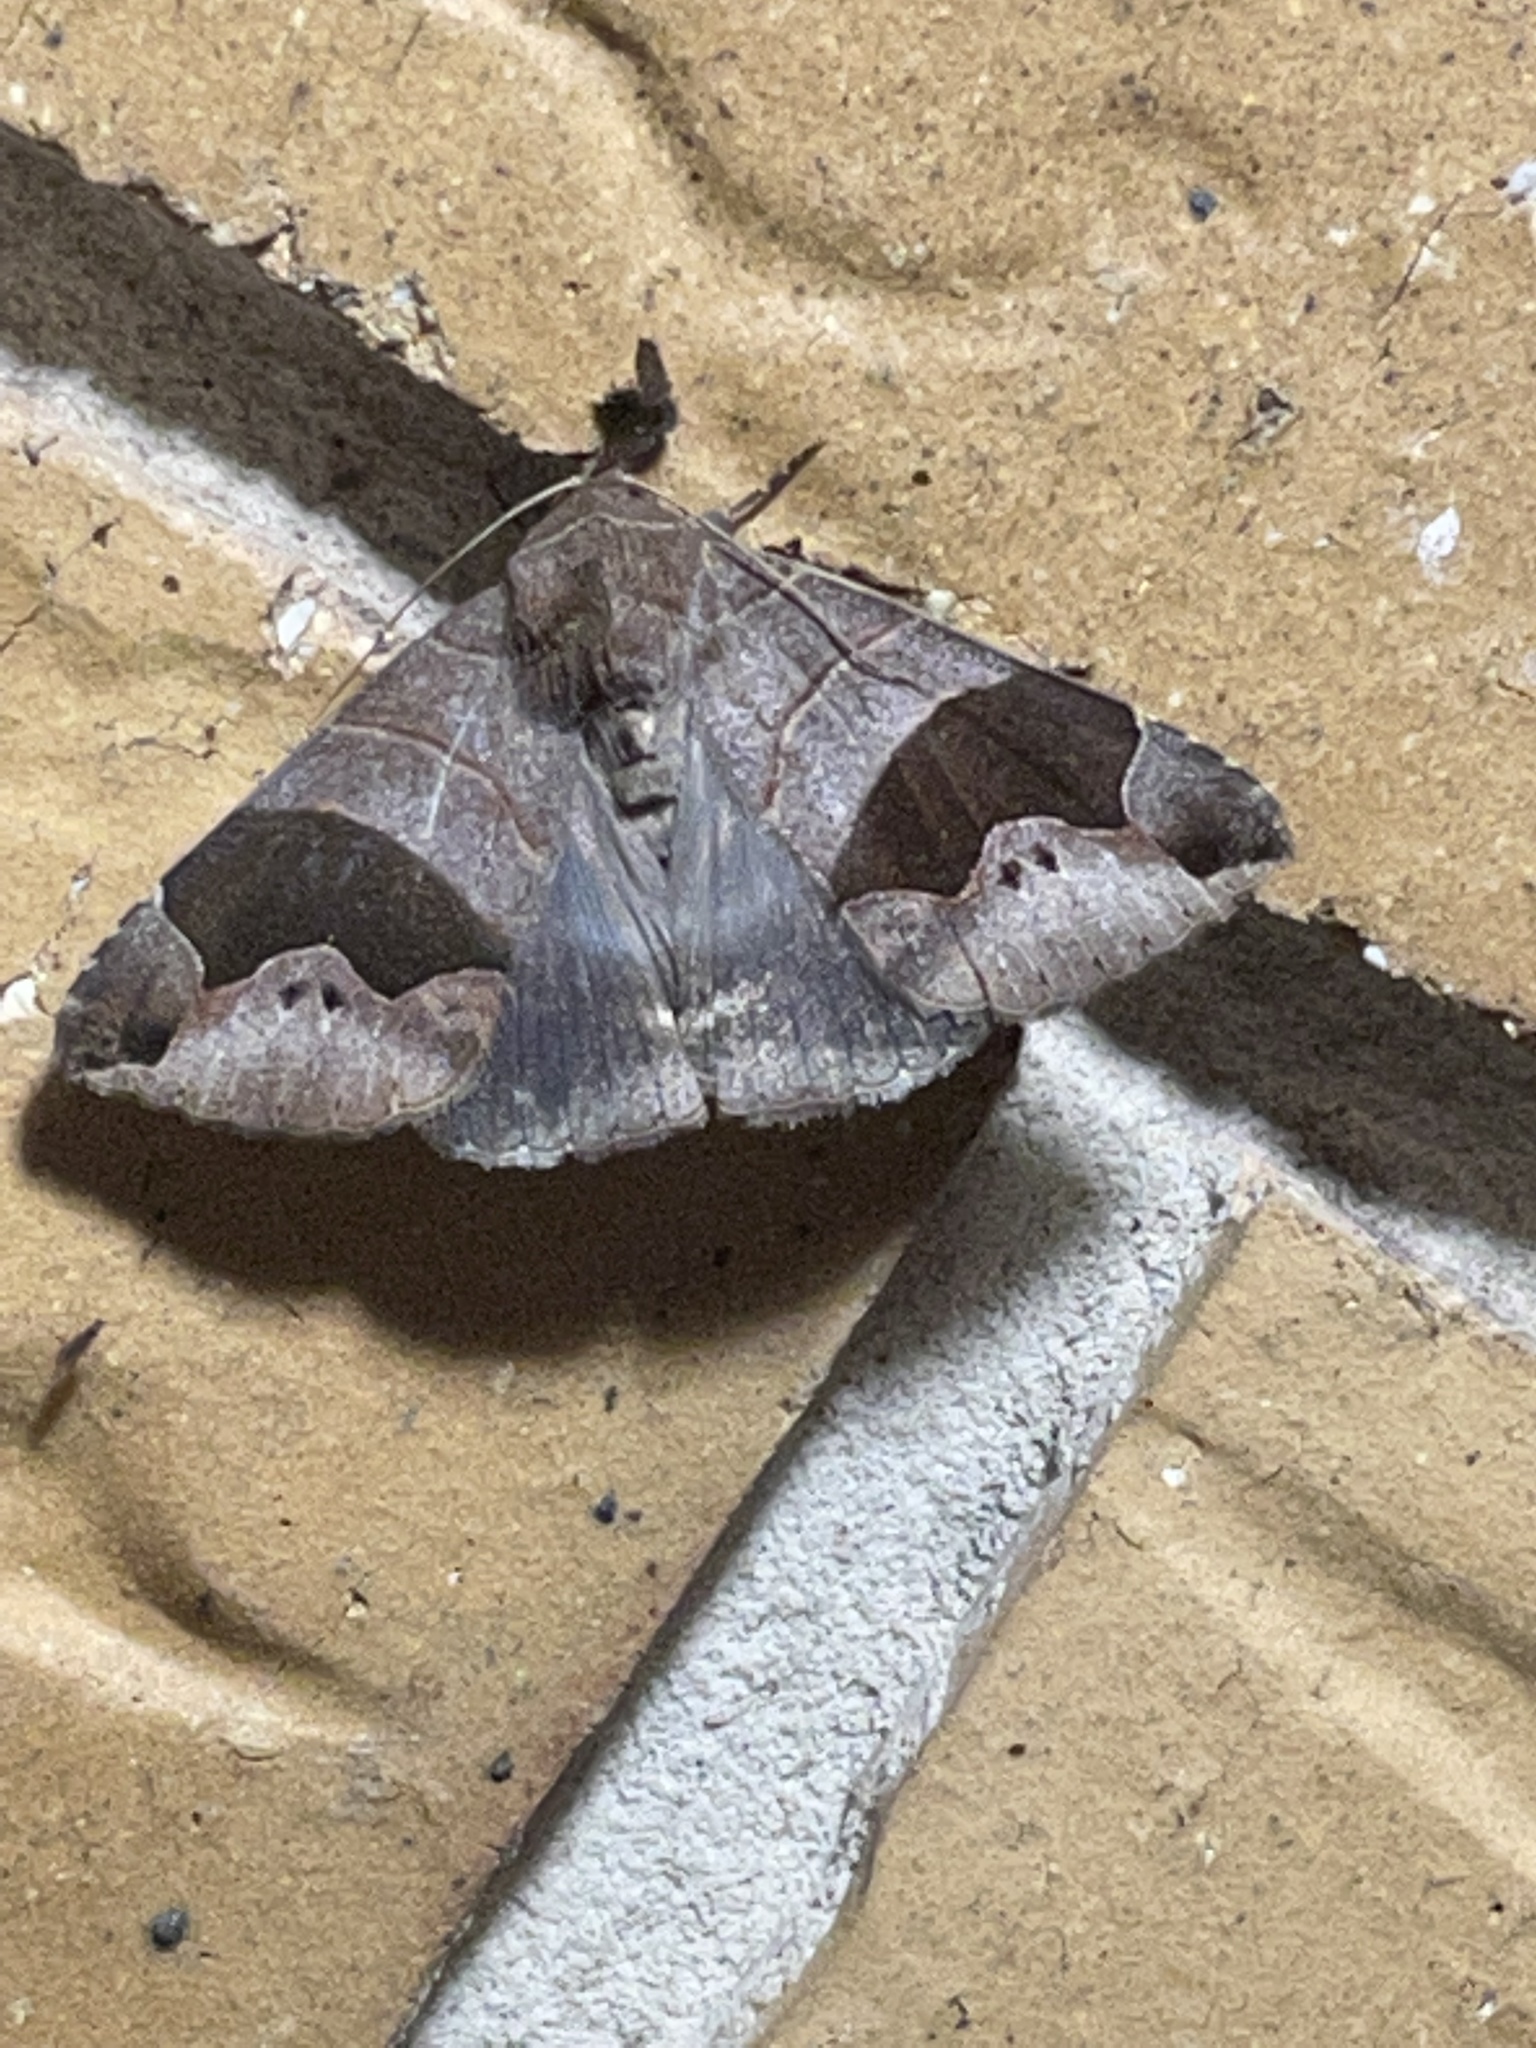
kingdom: Animalia
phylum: Arthropoda
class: Insecta
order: Lepidoptera
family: Erebidae
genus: Bastilla
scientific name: Bastilla solomonensis
